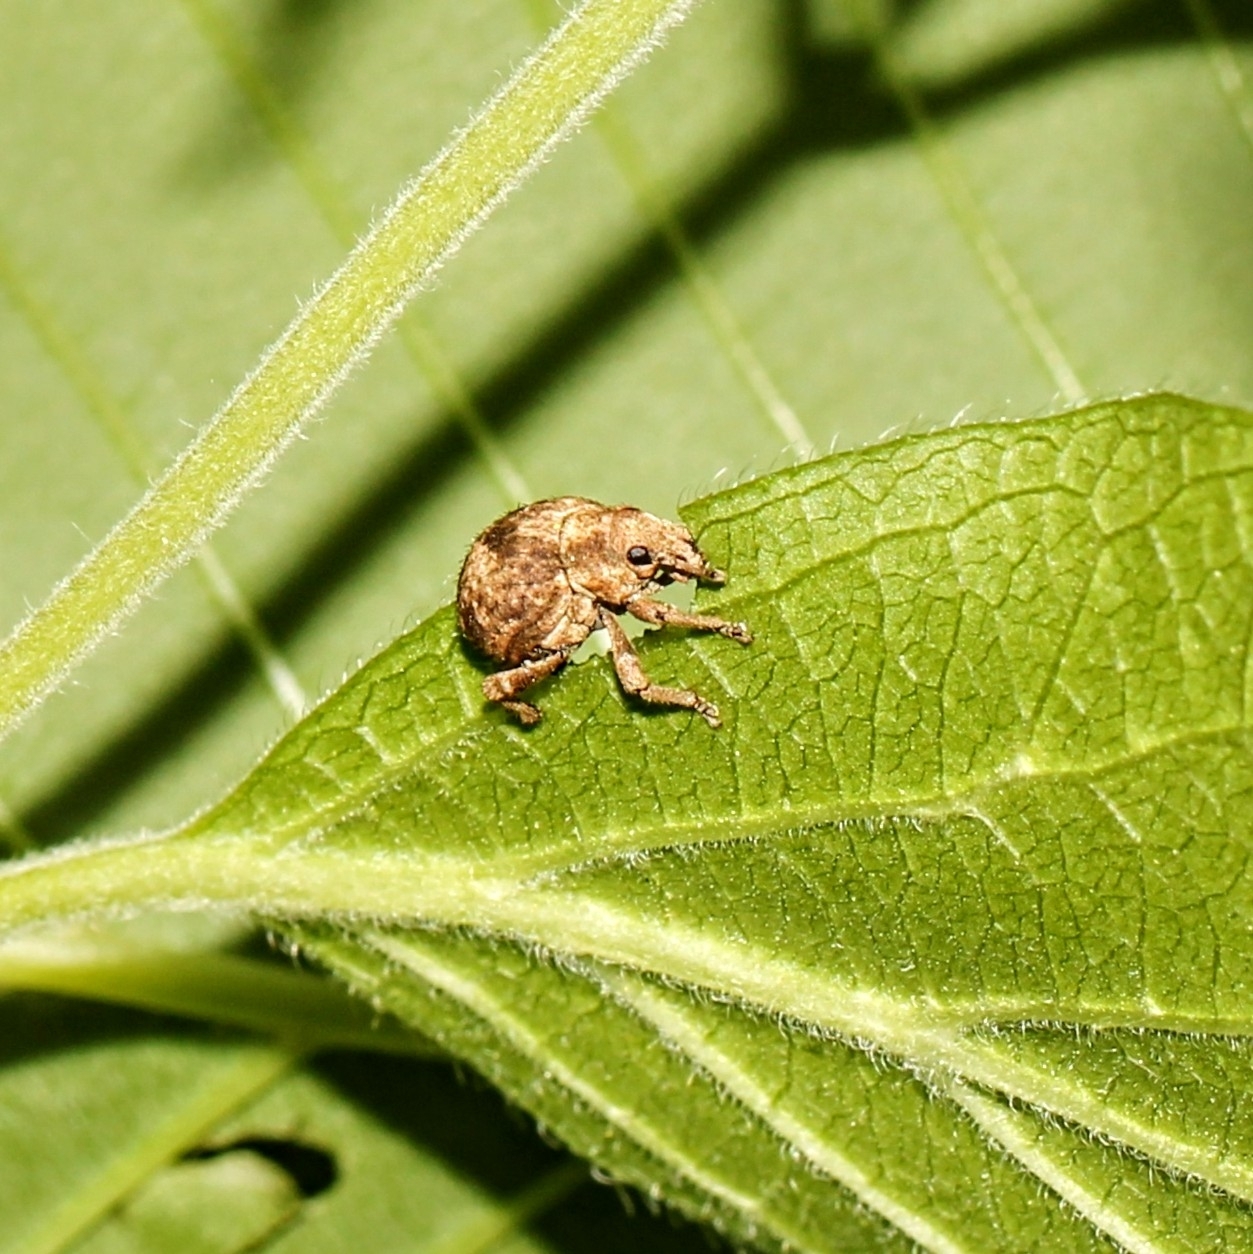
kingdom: Animalia
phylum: Arthropoda
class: Insecta
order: Coleoptera
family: Curculionidae
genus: Pseudocneorhinus
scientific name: Pseudocneorhinus bifasciatus
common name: Two-banded japanese weevil
